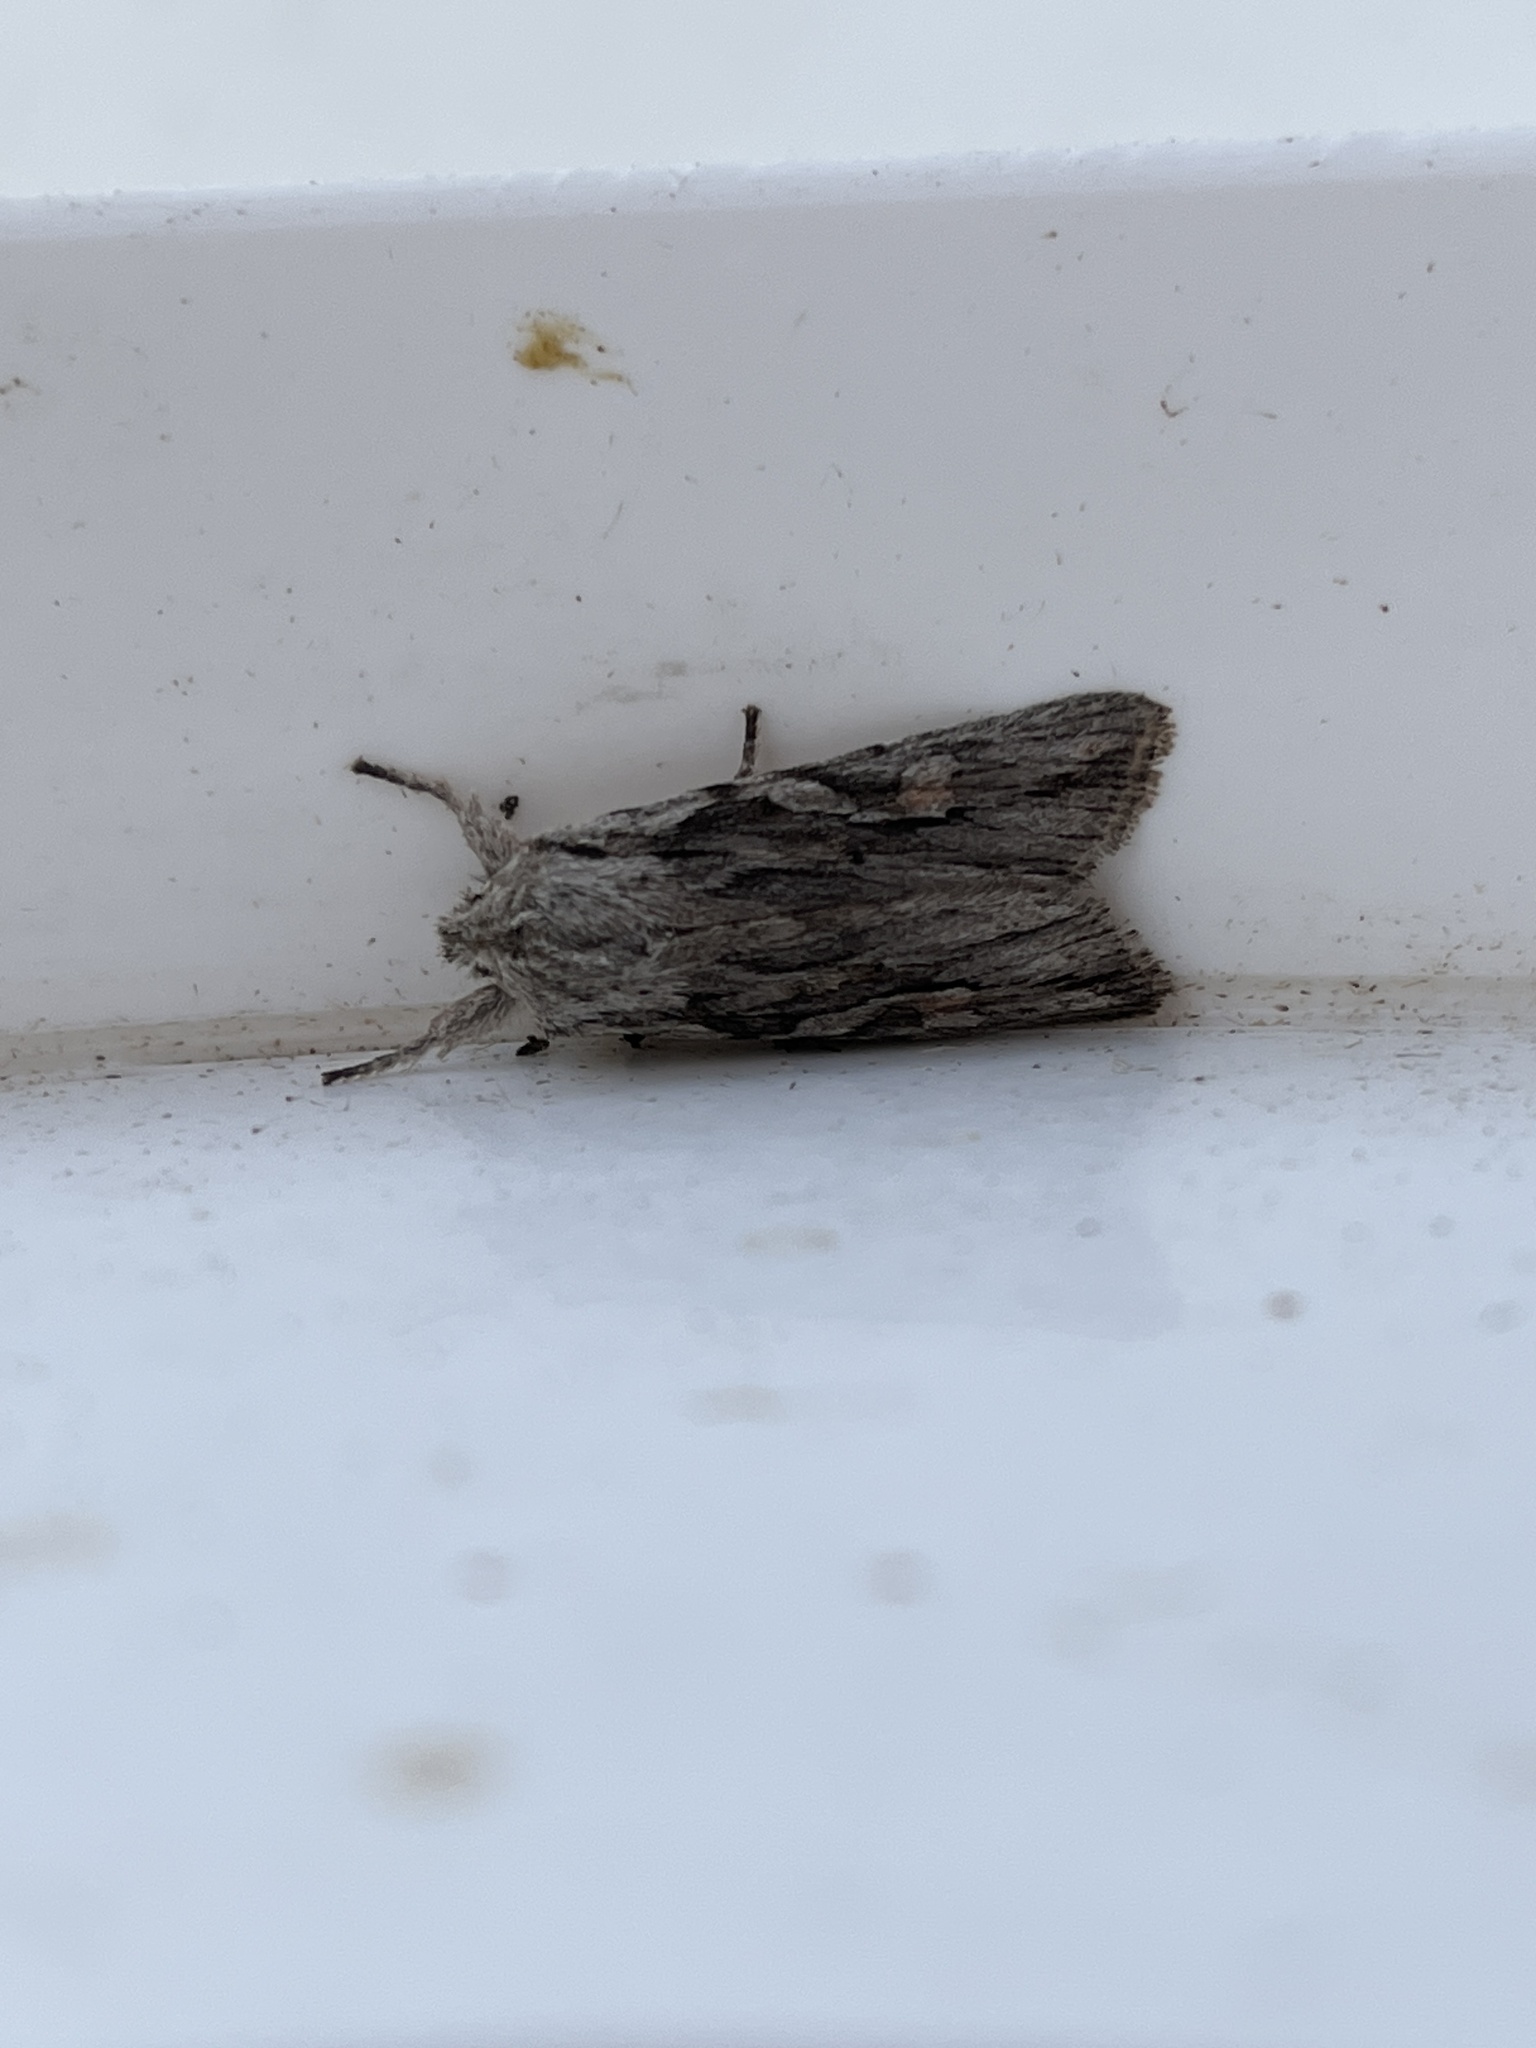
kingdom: Animalia
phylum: Arthropoda
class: Insecta
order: Lepidoptera
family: Noctuidae
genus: Lithophane
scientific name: Lithophane leautieri
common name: Blair's shoulder-knot
